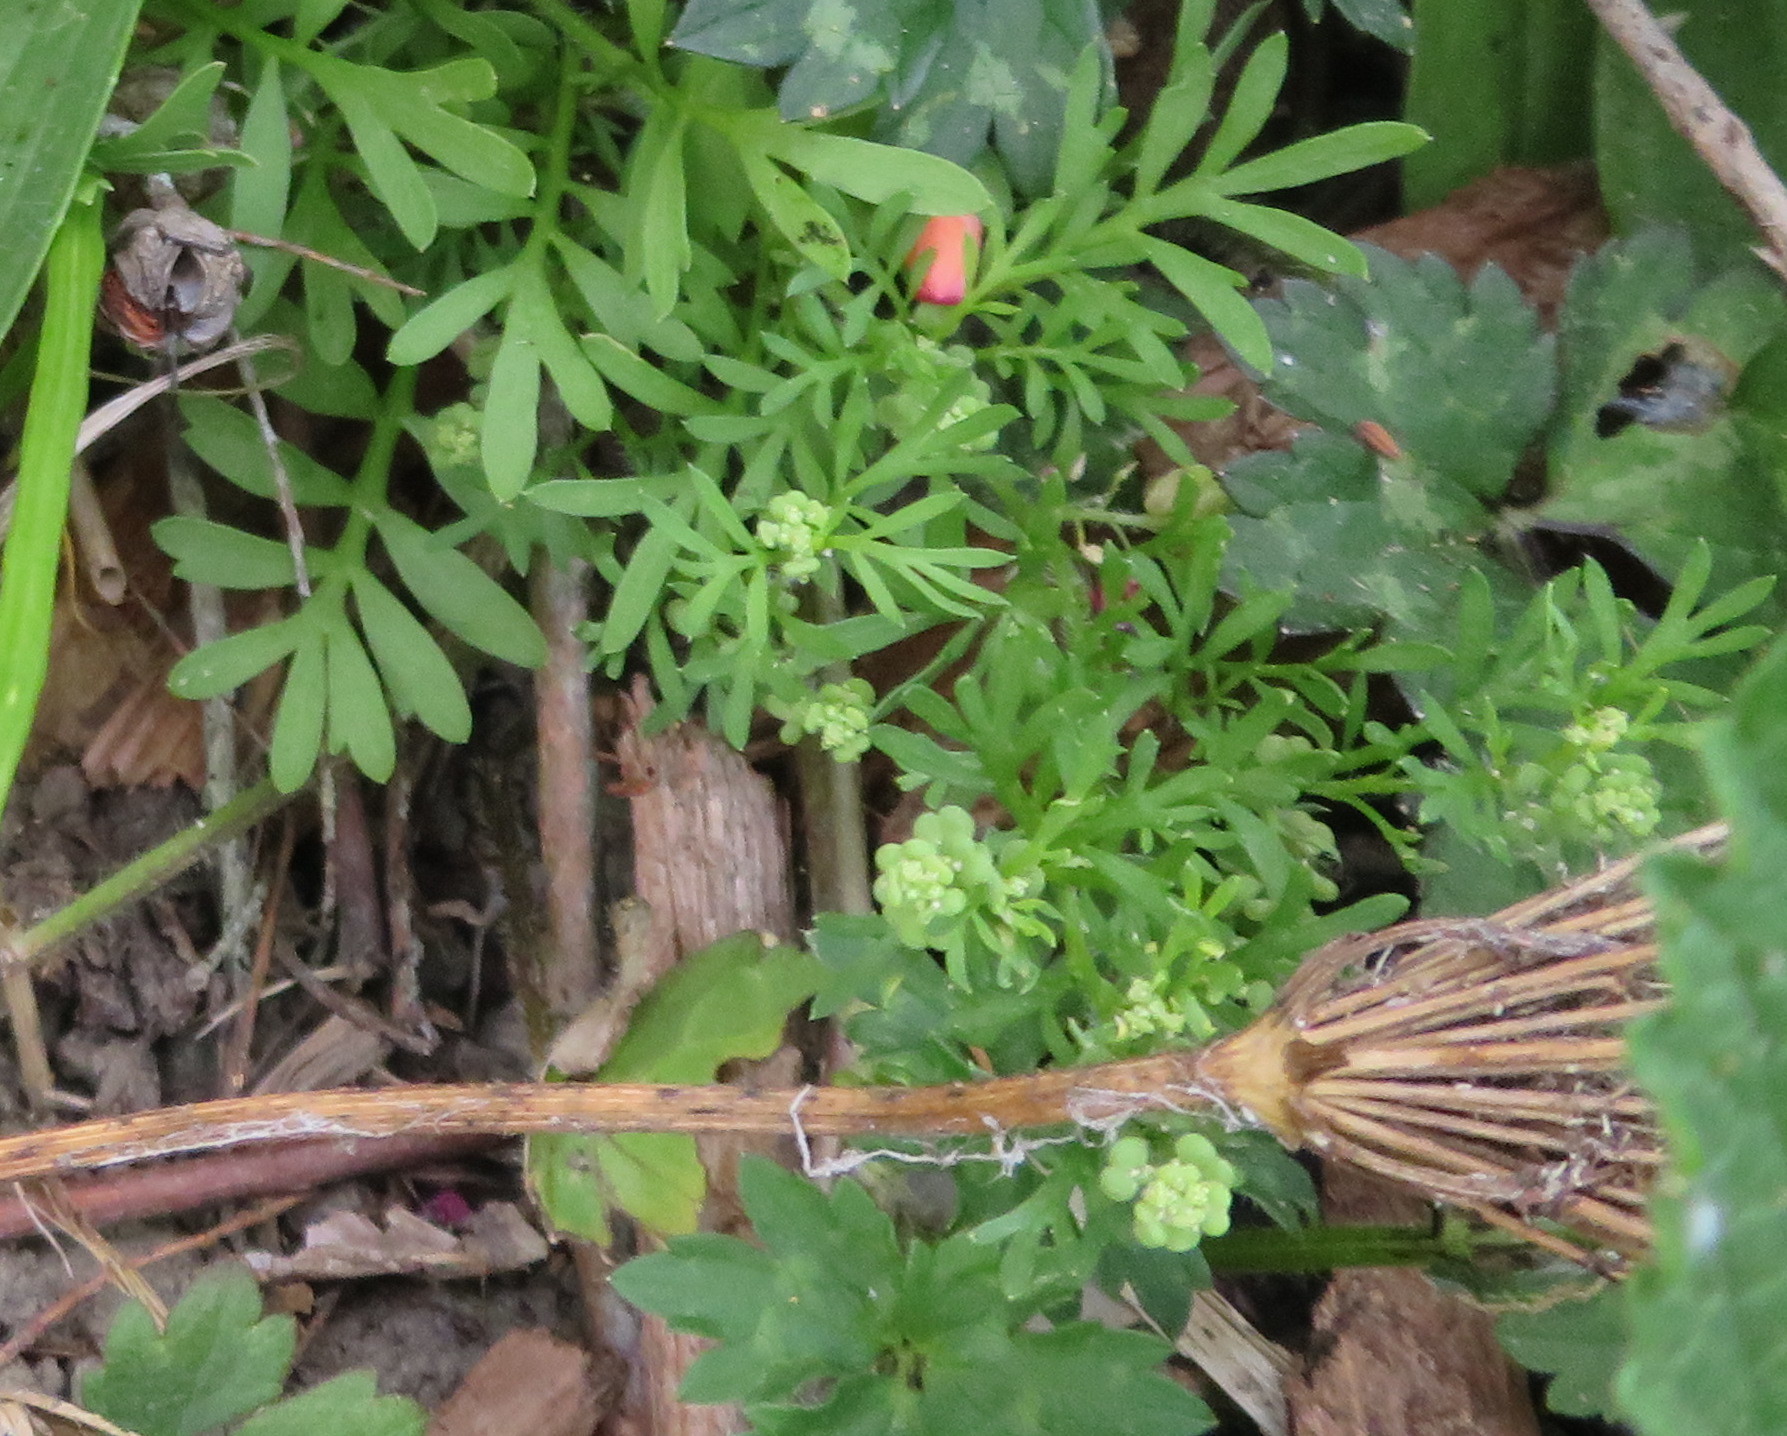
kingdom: Plantae
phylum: Tracheophyta
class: Magnoliopsida
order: Brassicales
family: Brassicaceae
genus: Lepidium
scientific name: Lepidium didymum
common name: Lesser swinecress
